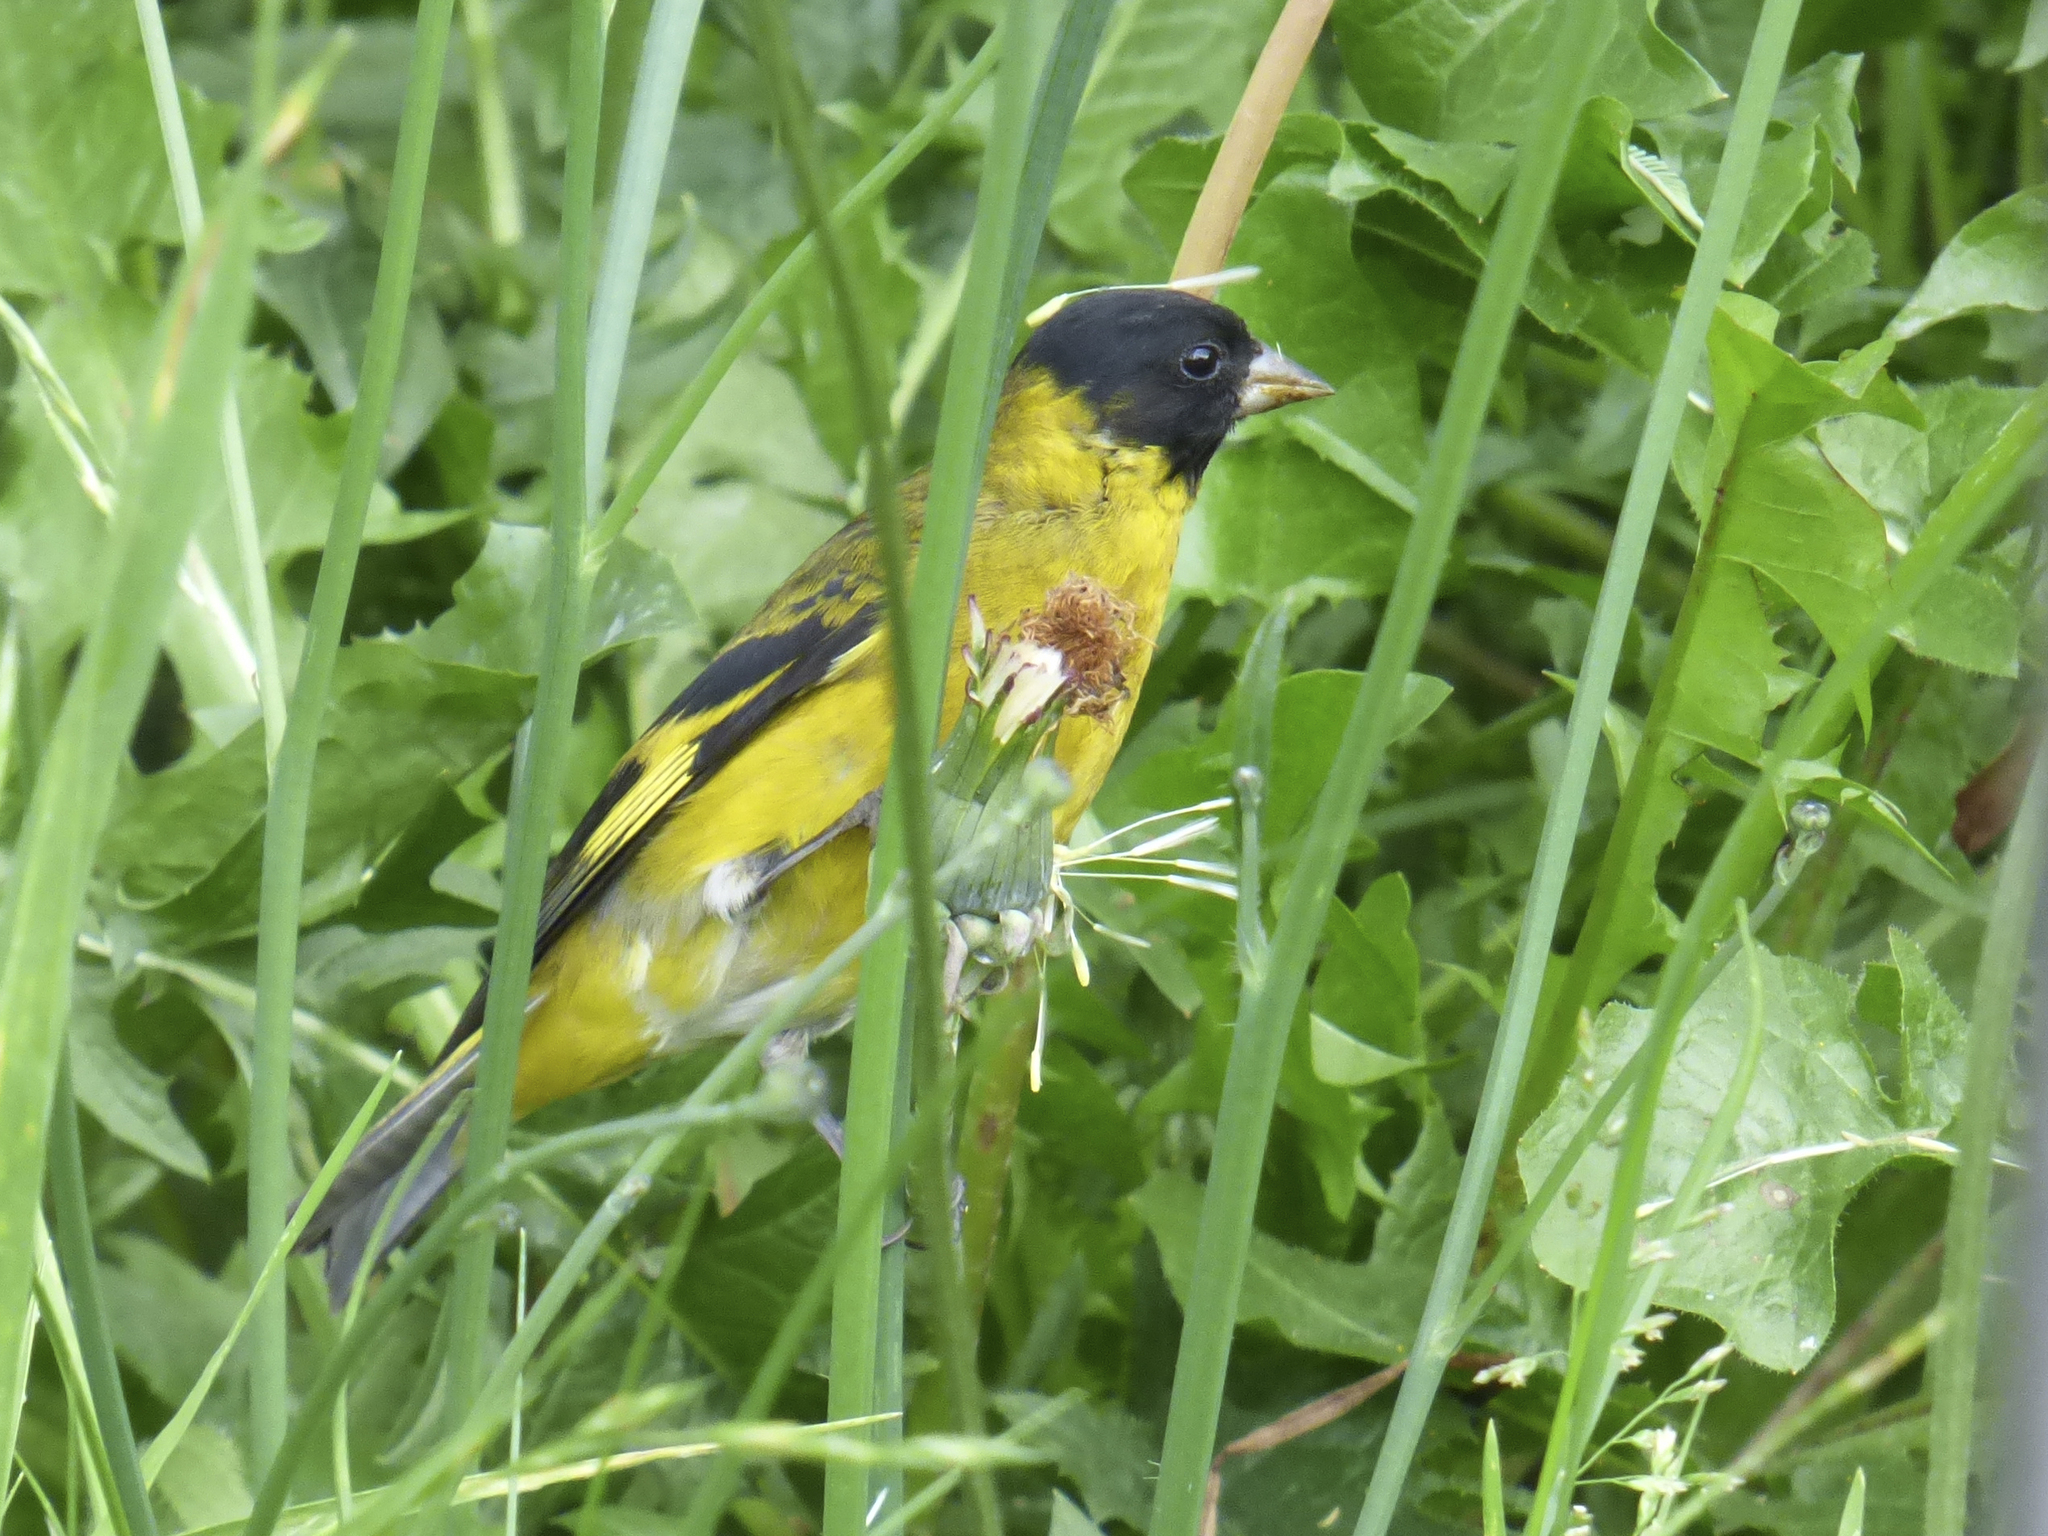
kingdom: Animalia
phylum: Chordata
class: Aves
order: Passeriformes
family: Fringillidae
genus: Spinus
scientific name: Spinus magellanicus
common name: Hooded siskin
